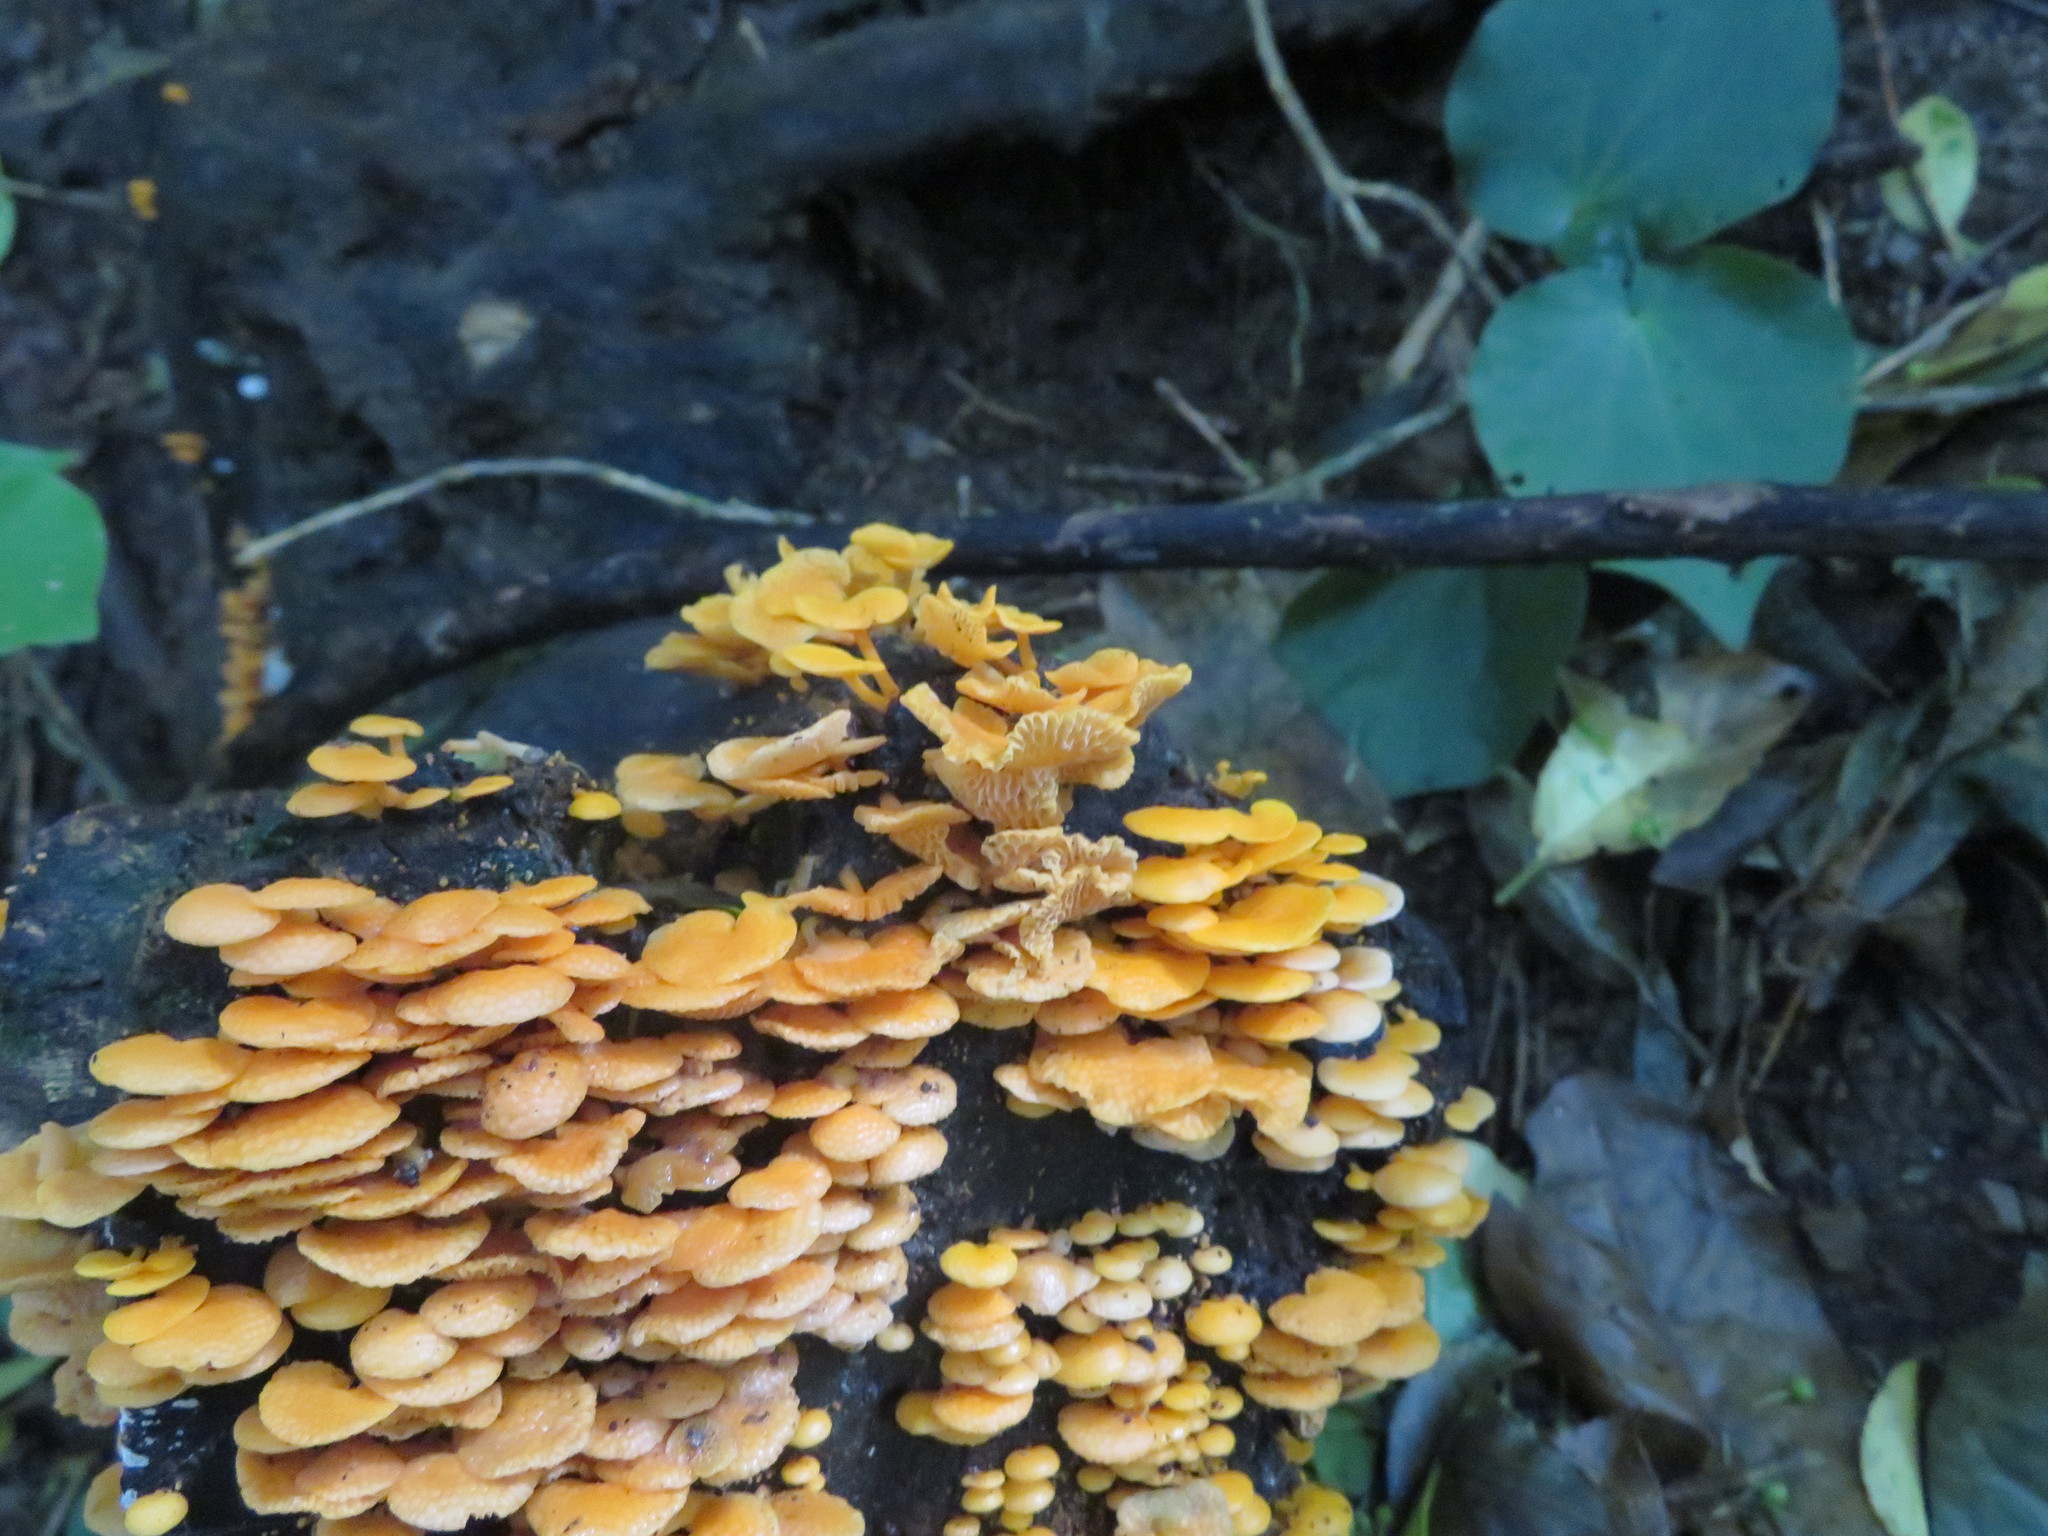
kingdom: Fungi
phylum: Basidiomycota
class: Agaricomycetes
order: Agaricales
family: Mycenaceae
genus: Favolaschia
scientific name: Favolaschia claudopus
